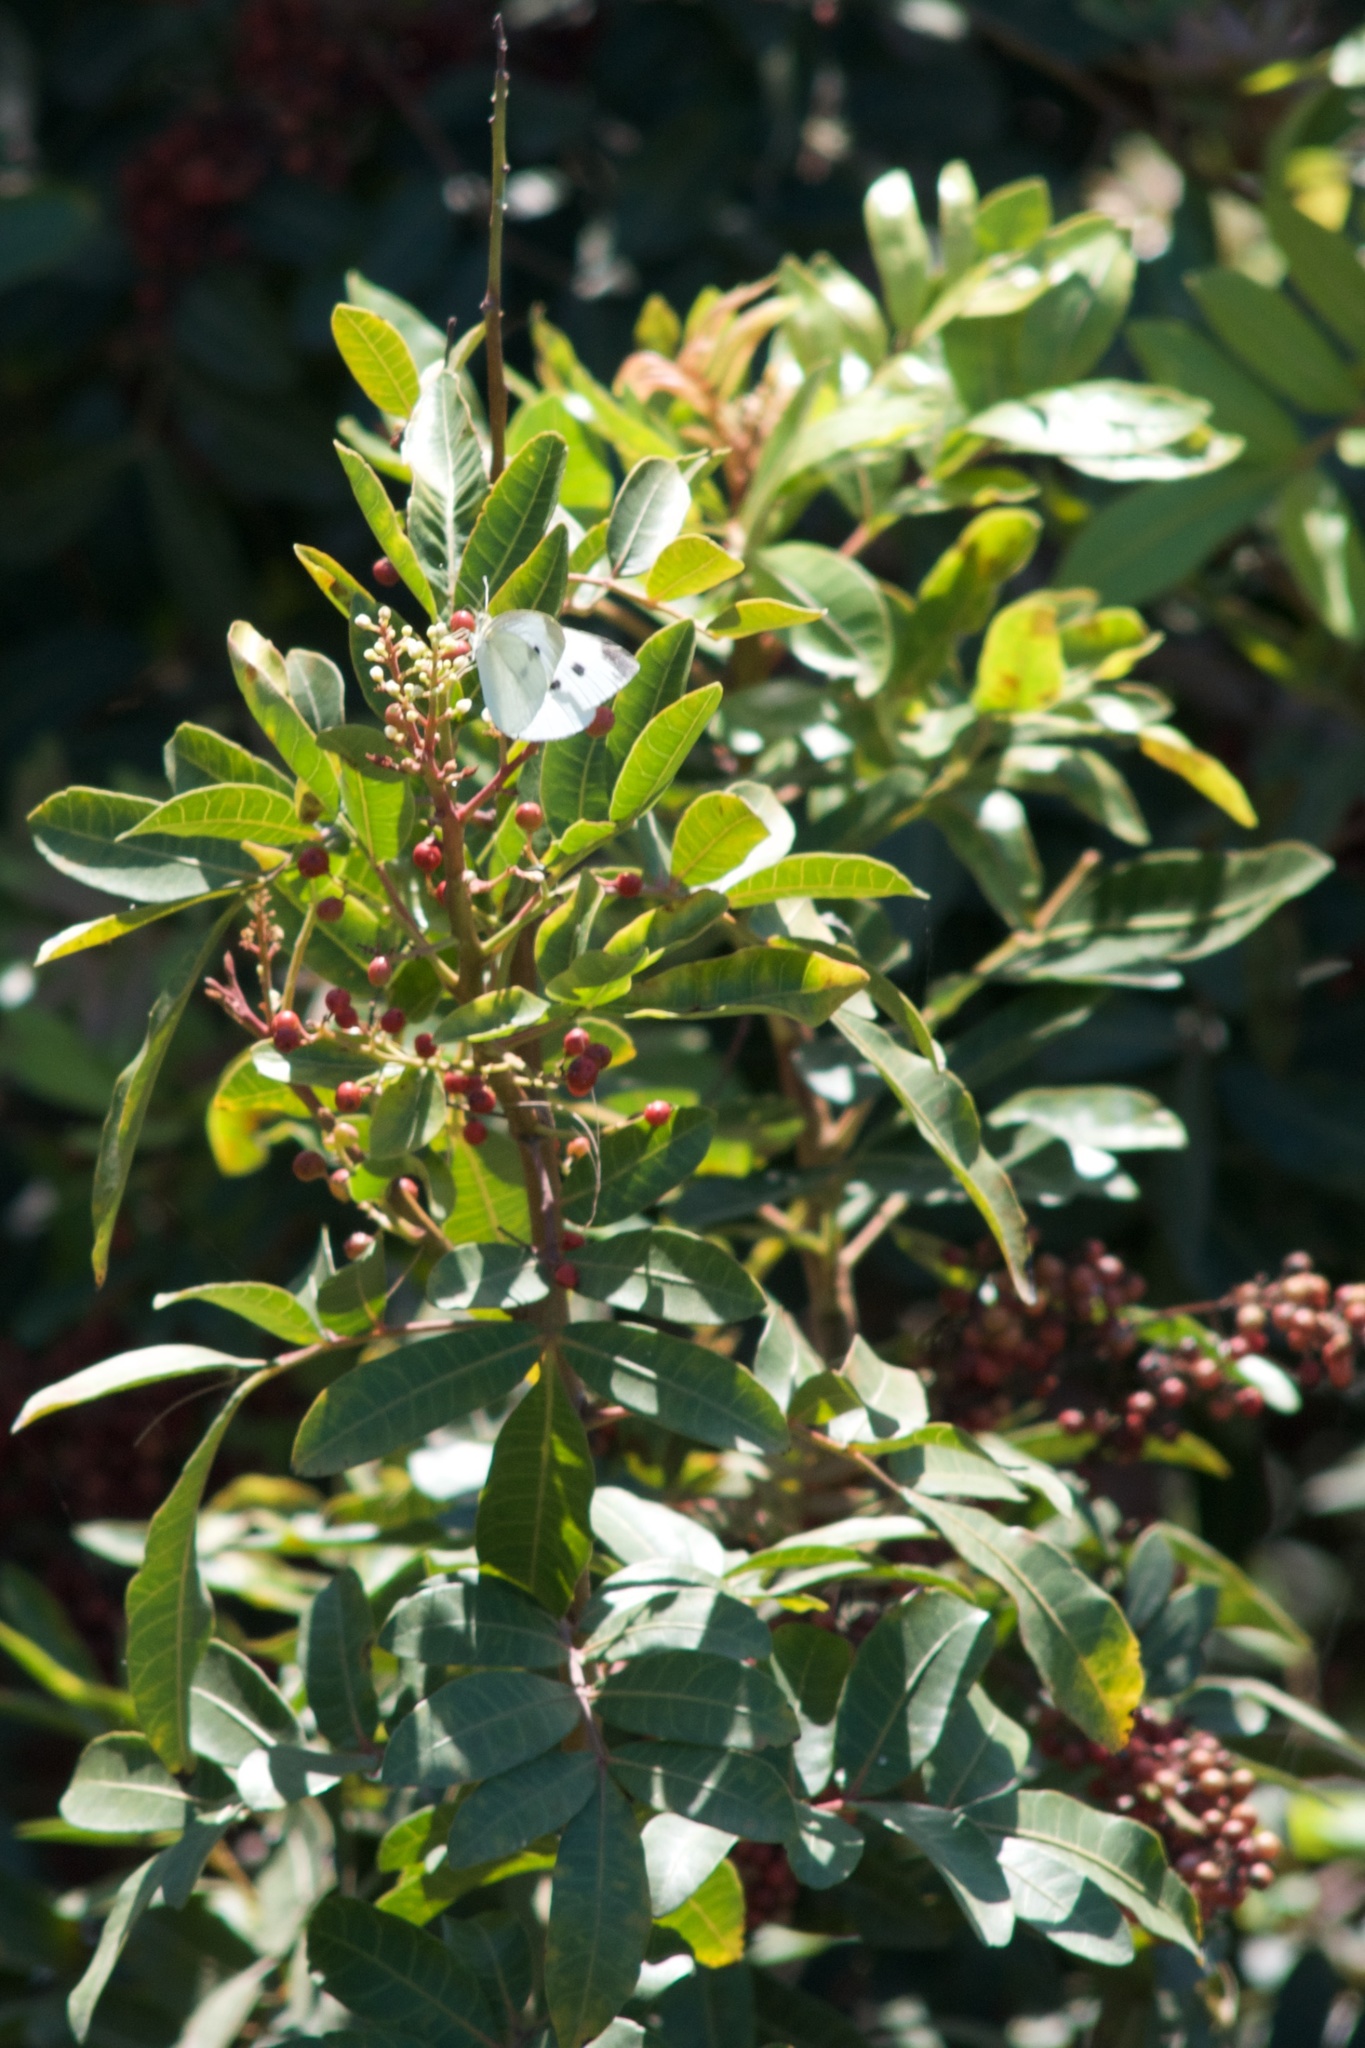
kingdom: Plantae
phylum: Tracheophyta
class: Magnoliopsida
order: Sapindales
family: Anacardiaceae
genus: Schinus
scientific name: Schinus terebinthifolia
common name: Brazilian peppertree
